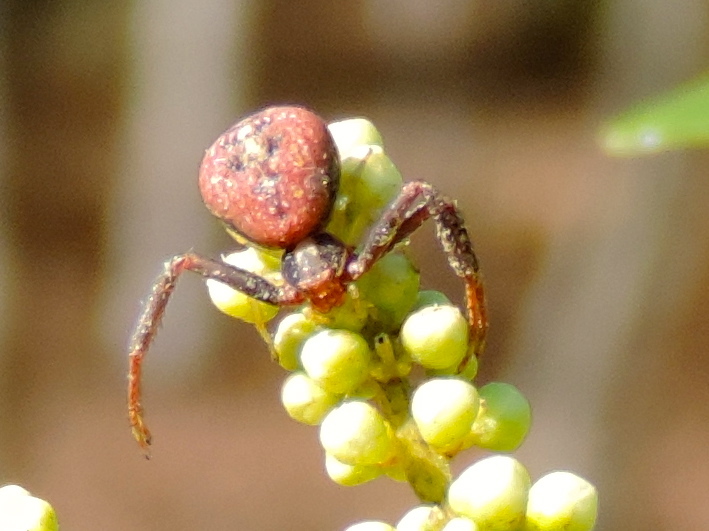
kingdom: Animalia
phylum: Arthropoda
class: Arachnida
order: Araneae
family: Thomisidae
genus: Mecaphesa
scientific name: Mecaphesa dubia
